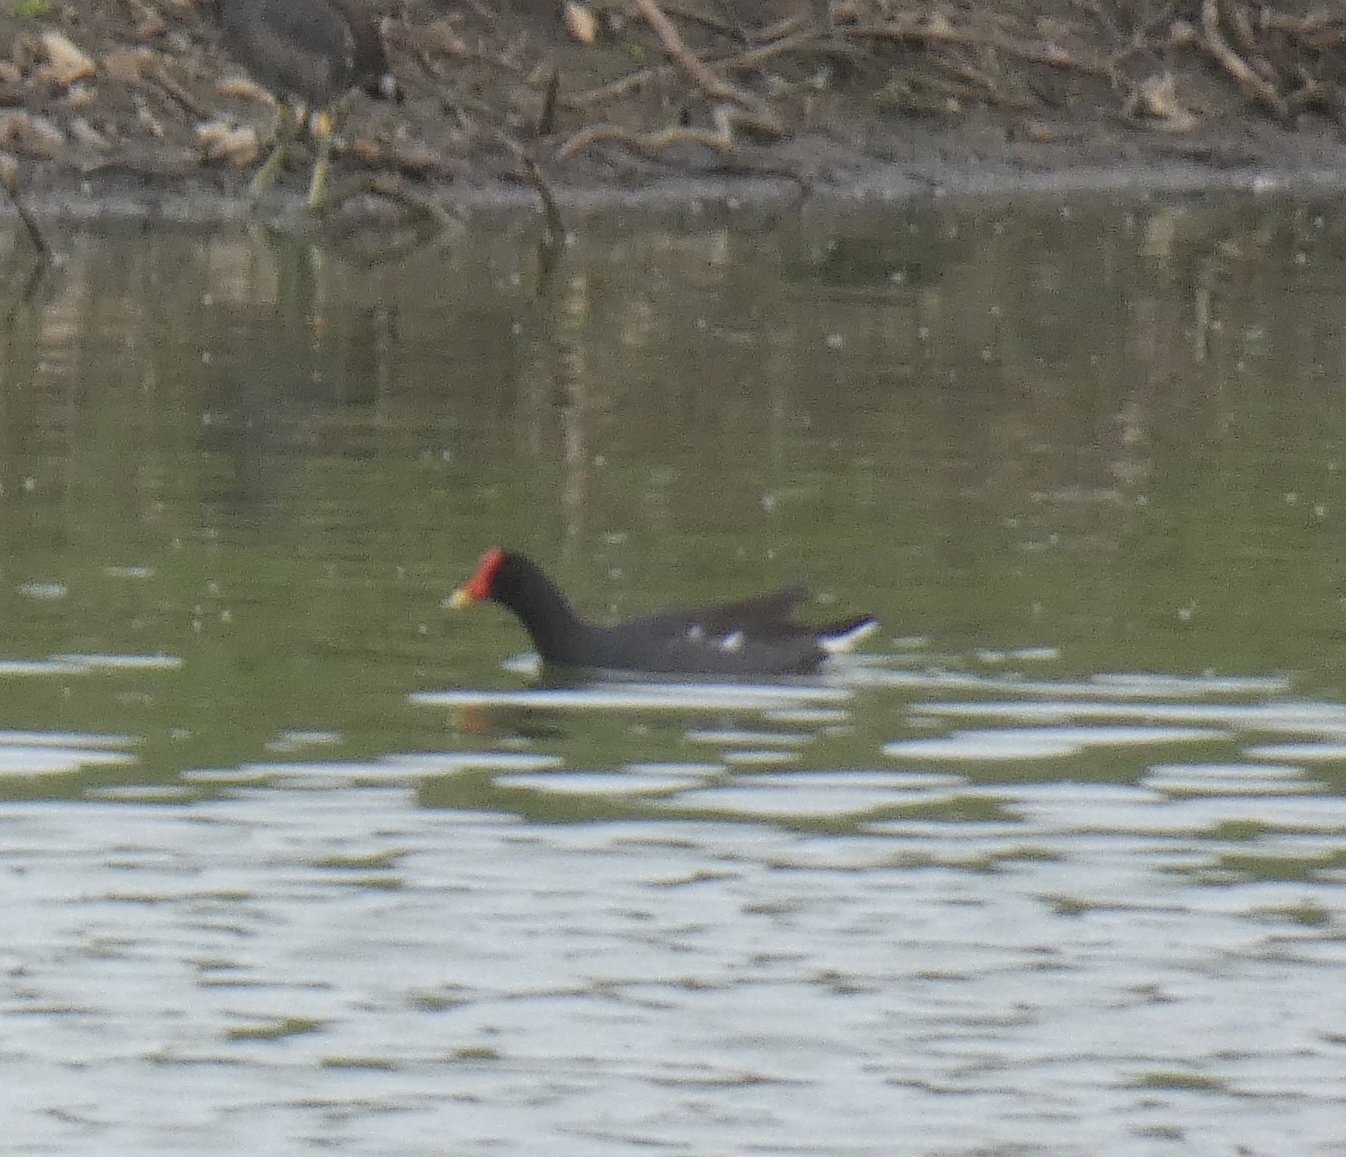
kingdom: Animalia
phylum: Chordata
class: Aves
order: Gruiformes
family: Rallidae
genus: Gallinula
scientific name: Gallinula chloropus
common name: Common moorhen
